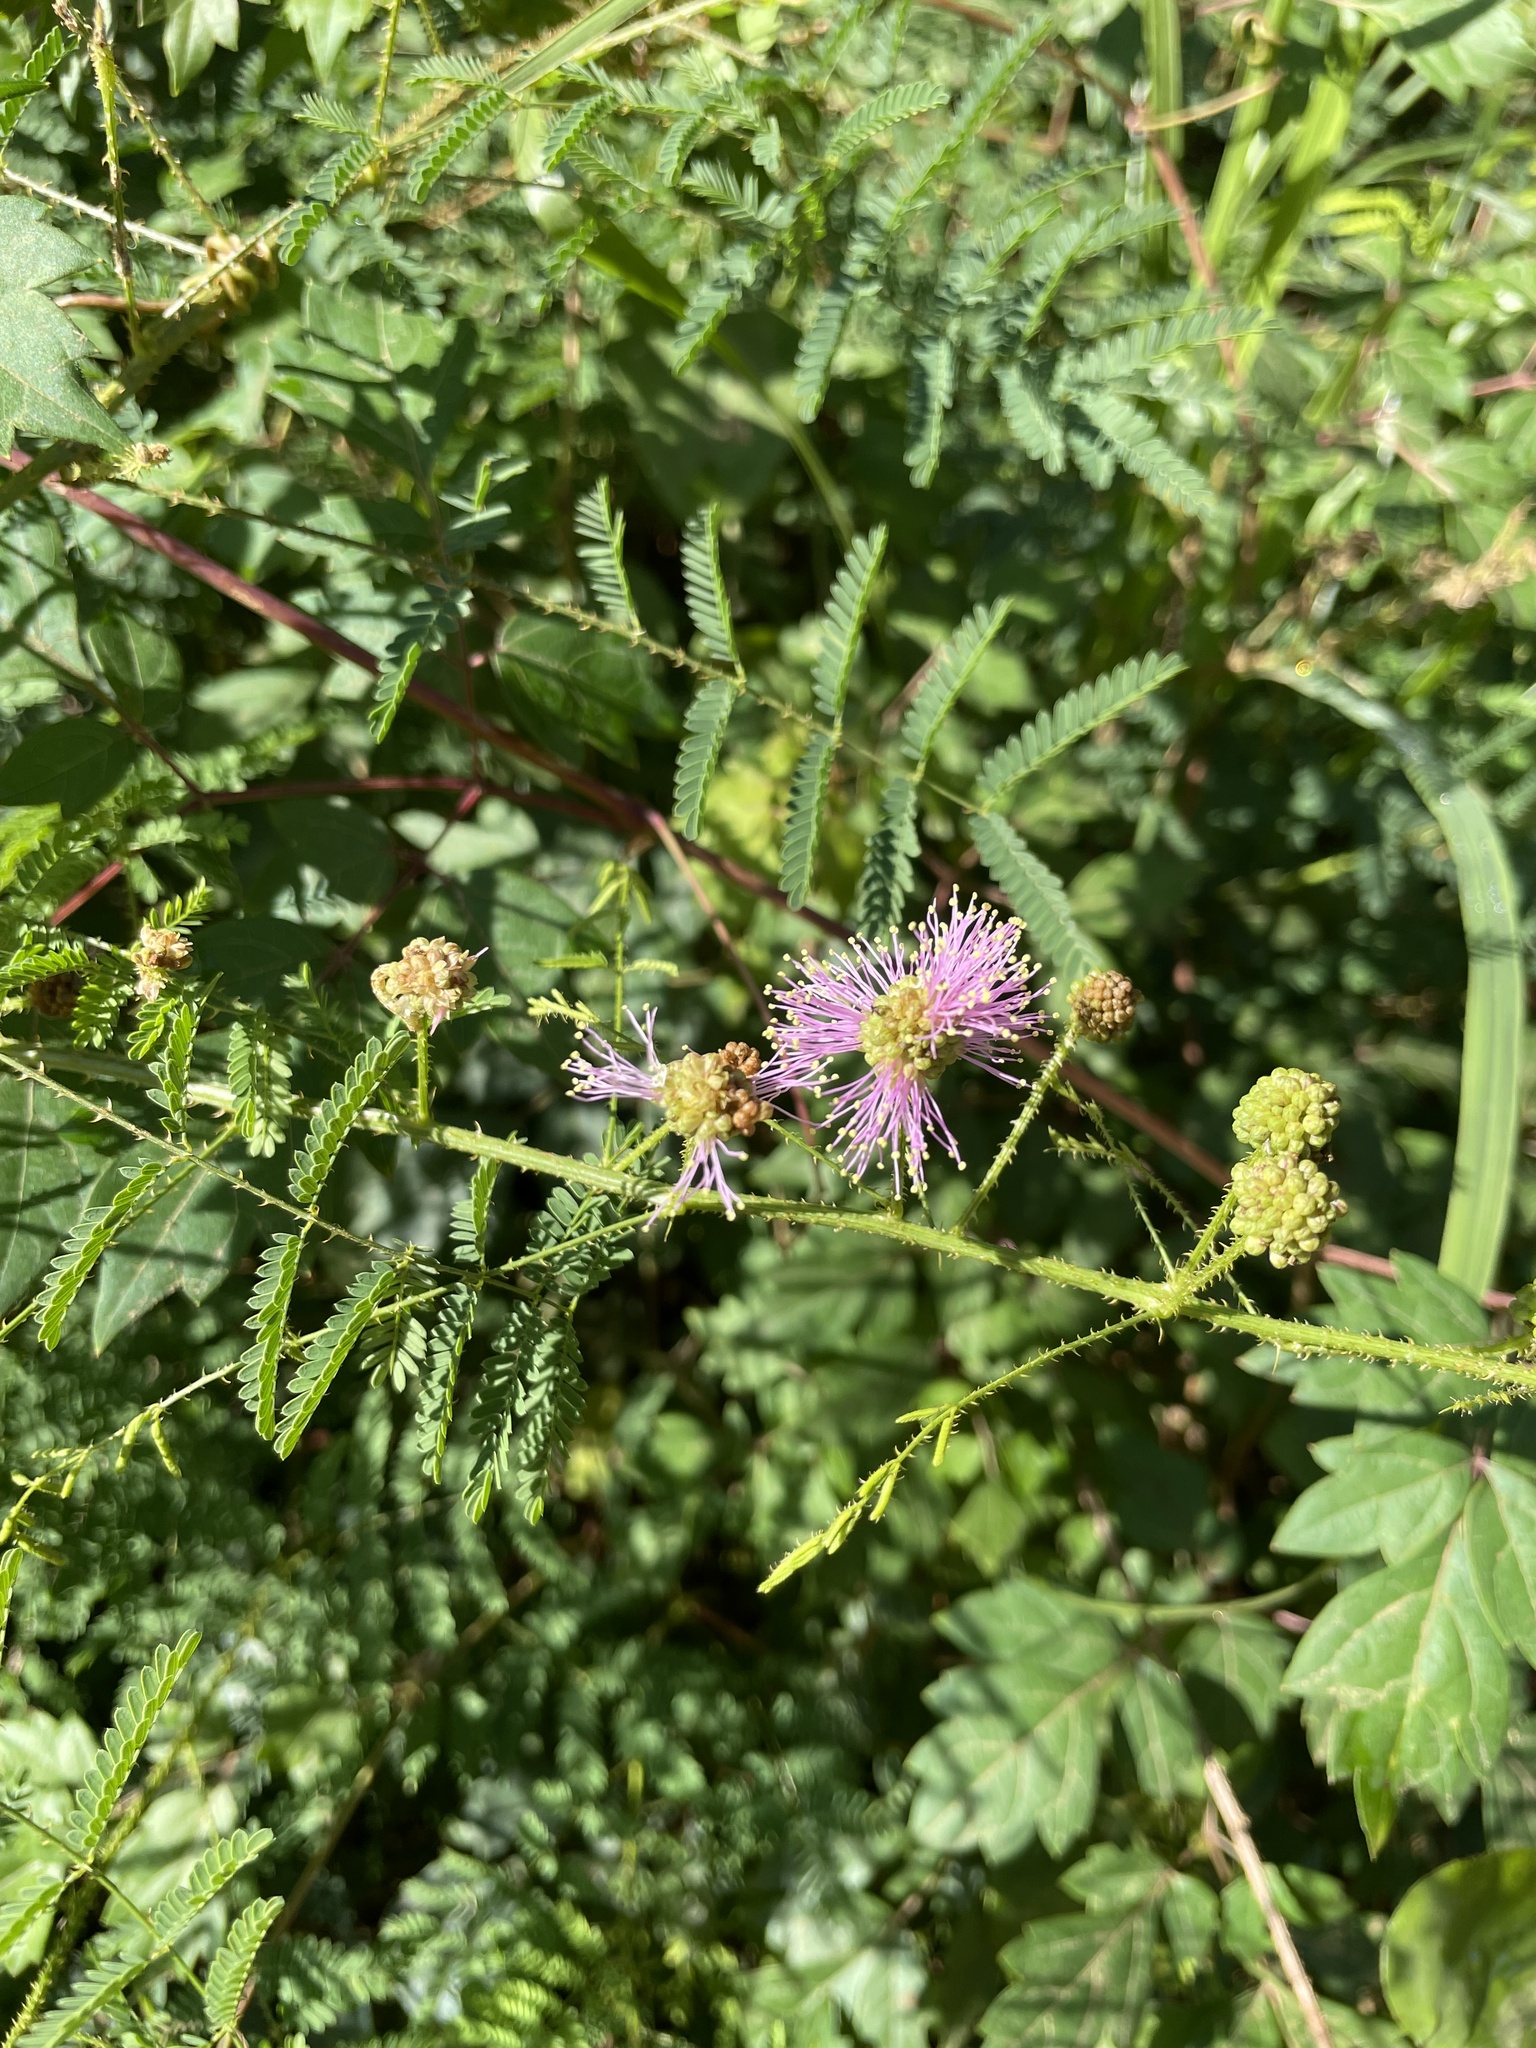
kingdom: Plantae
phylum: Tracheophyta
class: Magnoliopsida
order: Fabales
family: Fabaceae
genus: Mimosa
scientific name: Mimosa quadrivalvis
